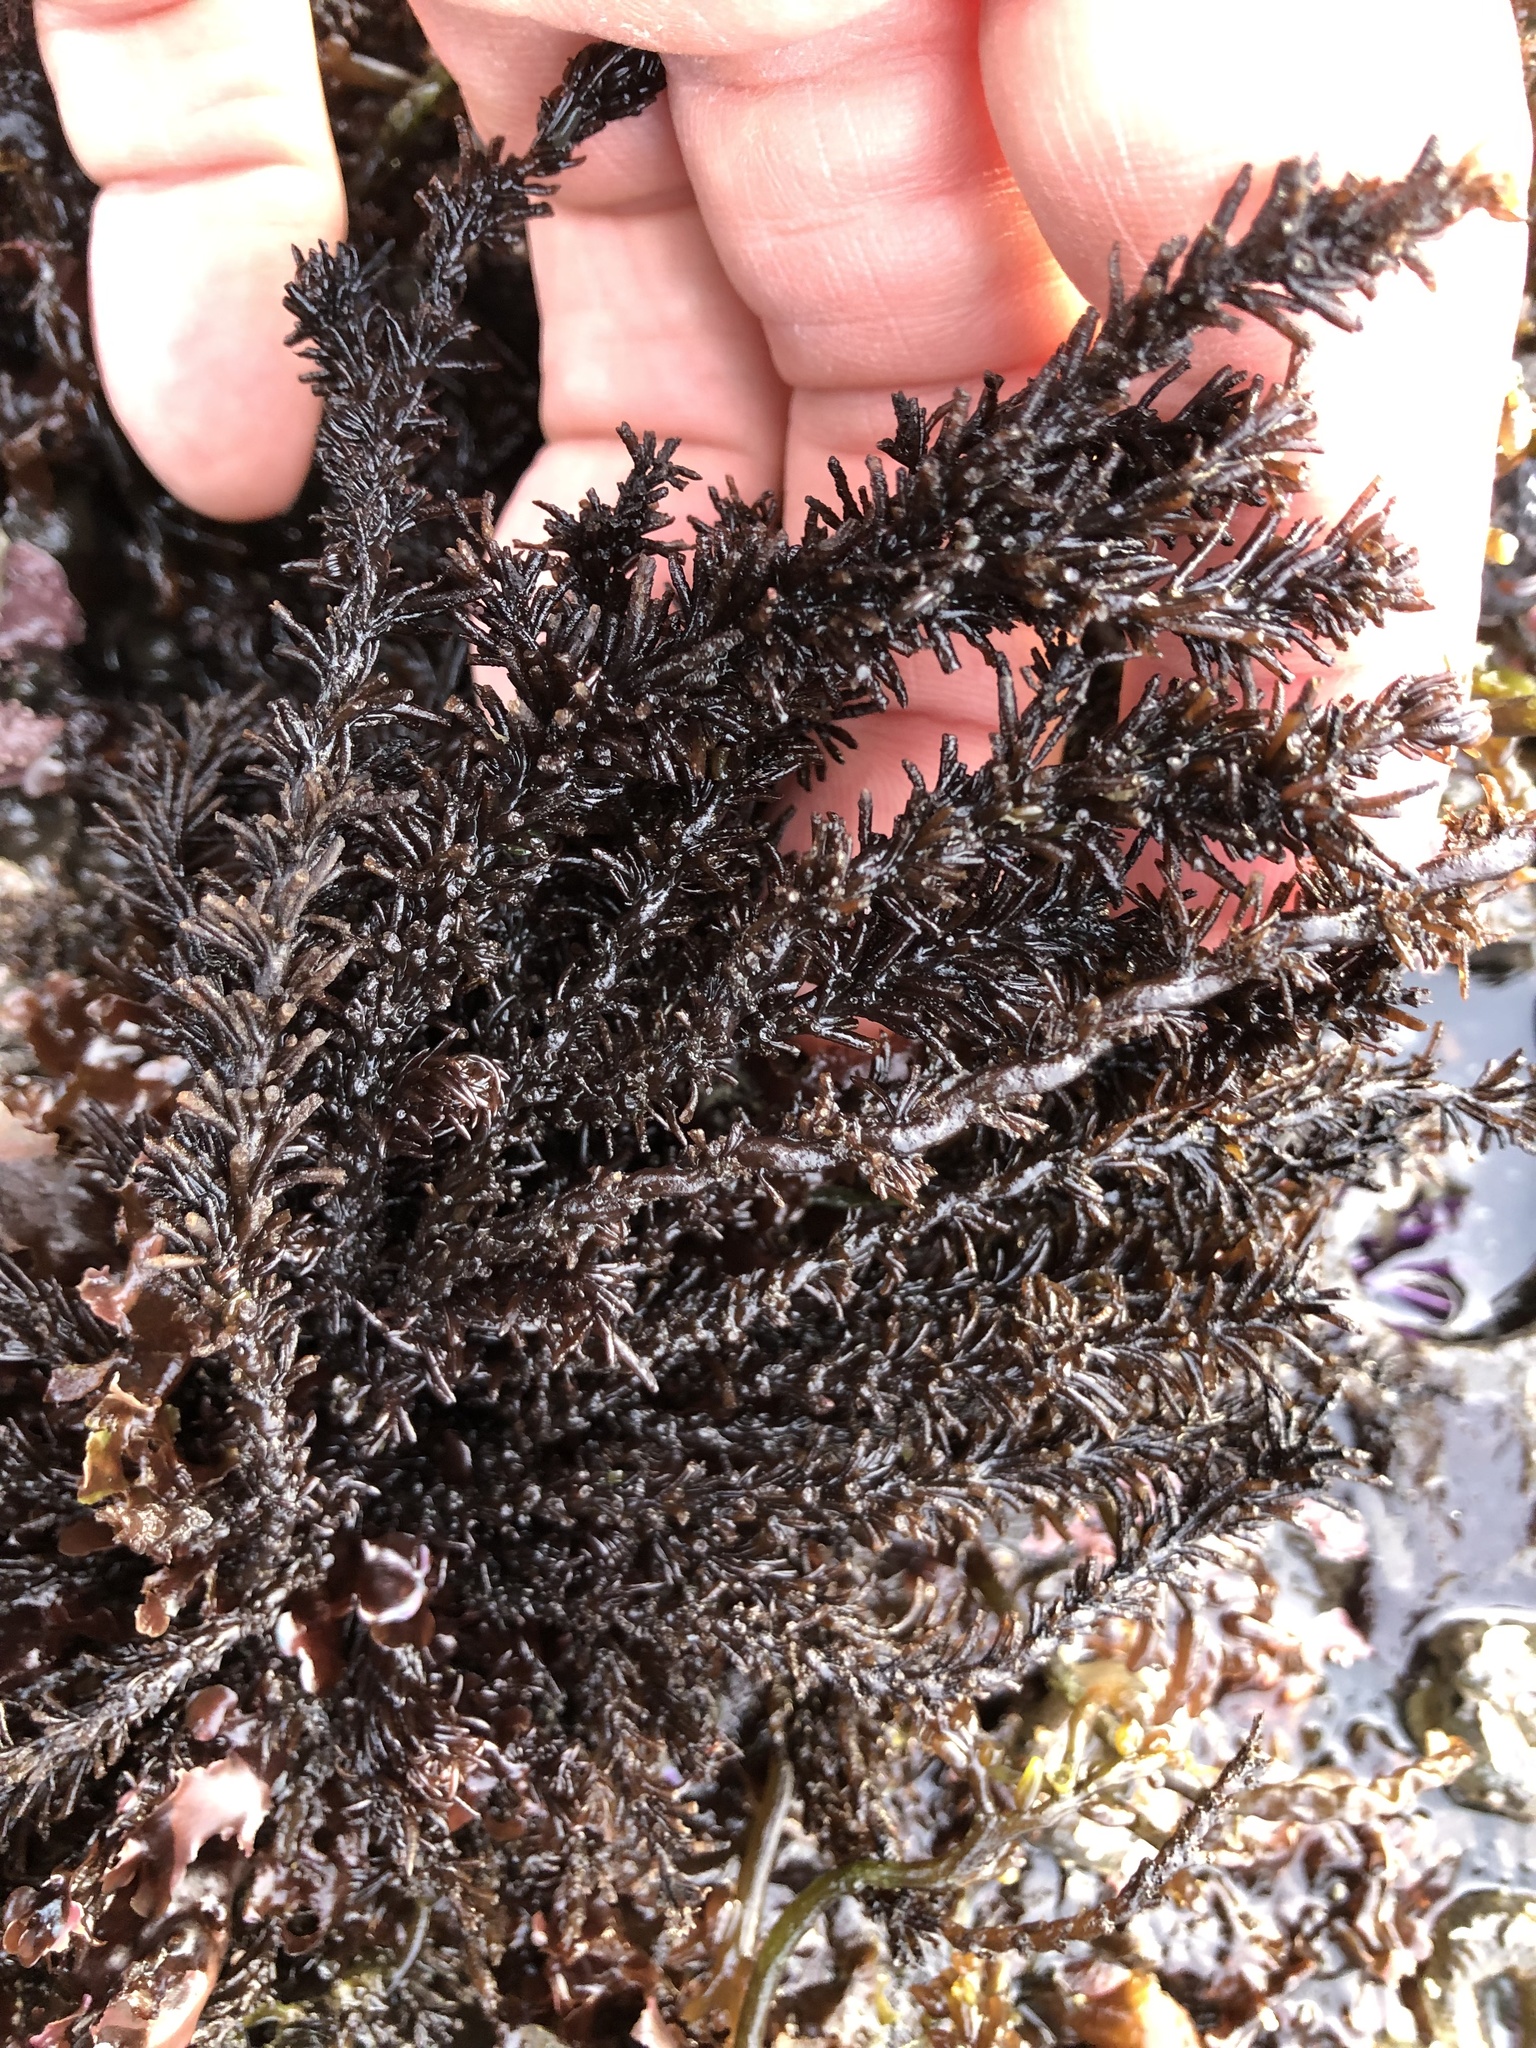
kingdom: Plantae
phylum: Rhodophyta
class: Florideophyceae
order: Ceramiales
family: Rhodomelaceae
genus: Neorhodomela
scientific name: Neorhodomela larix
